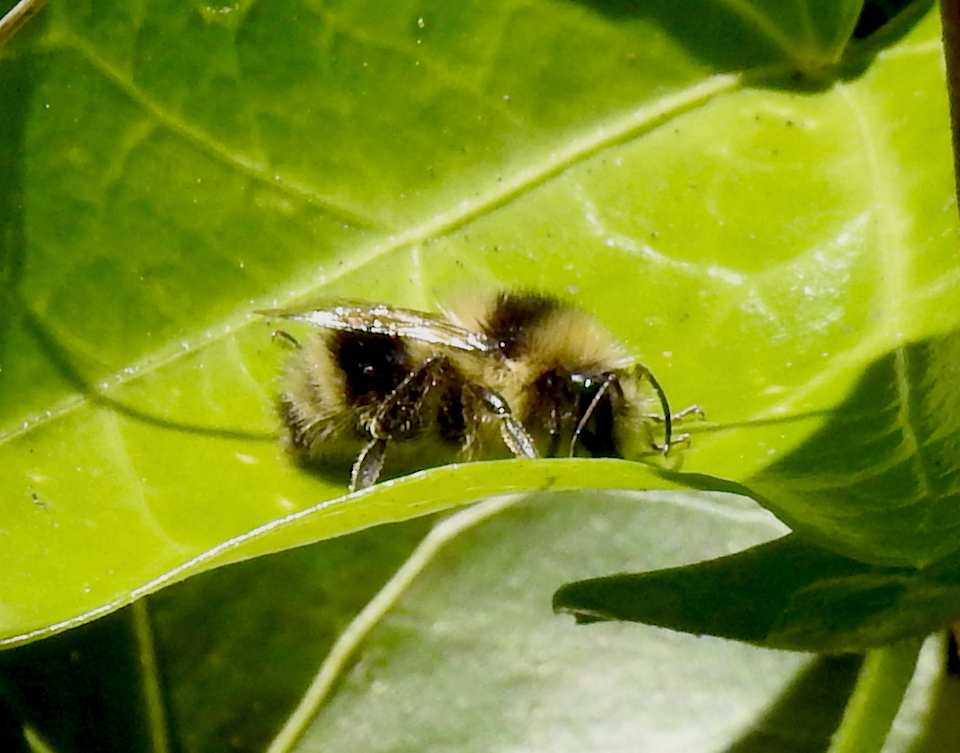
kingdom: Animalia
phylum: Arthropoda
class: Insecta
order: Hymenoptera
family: Apidae
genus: Bombus
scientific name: Bombus melanopygus
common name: Black tail bumble bee
